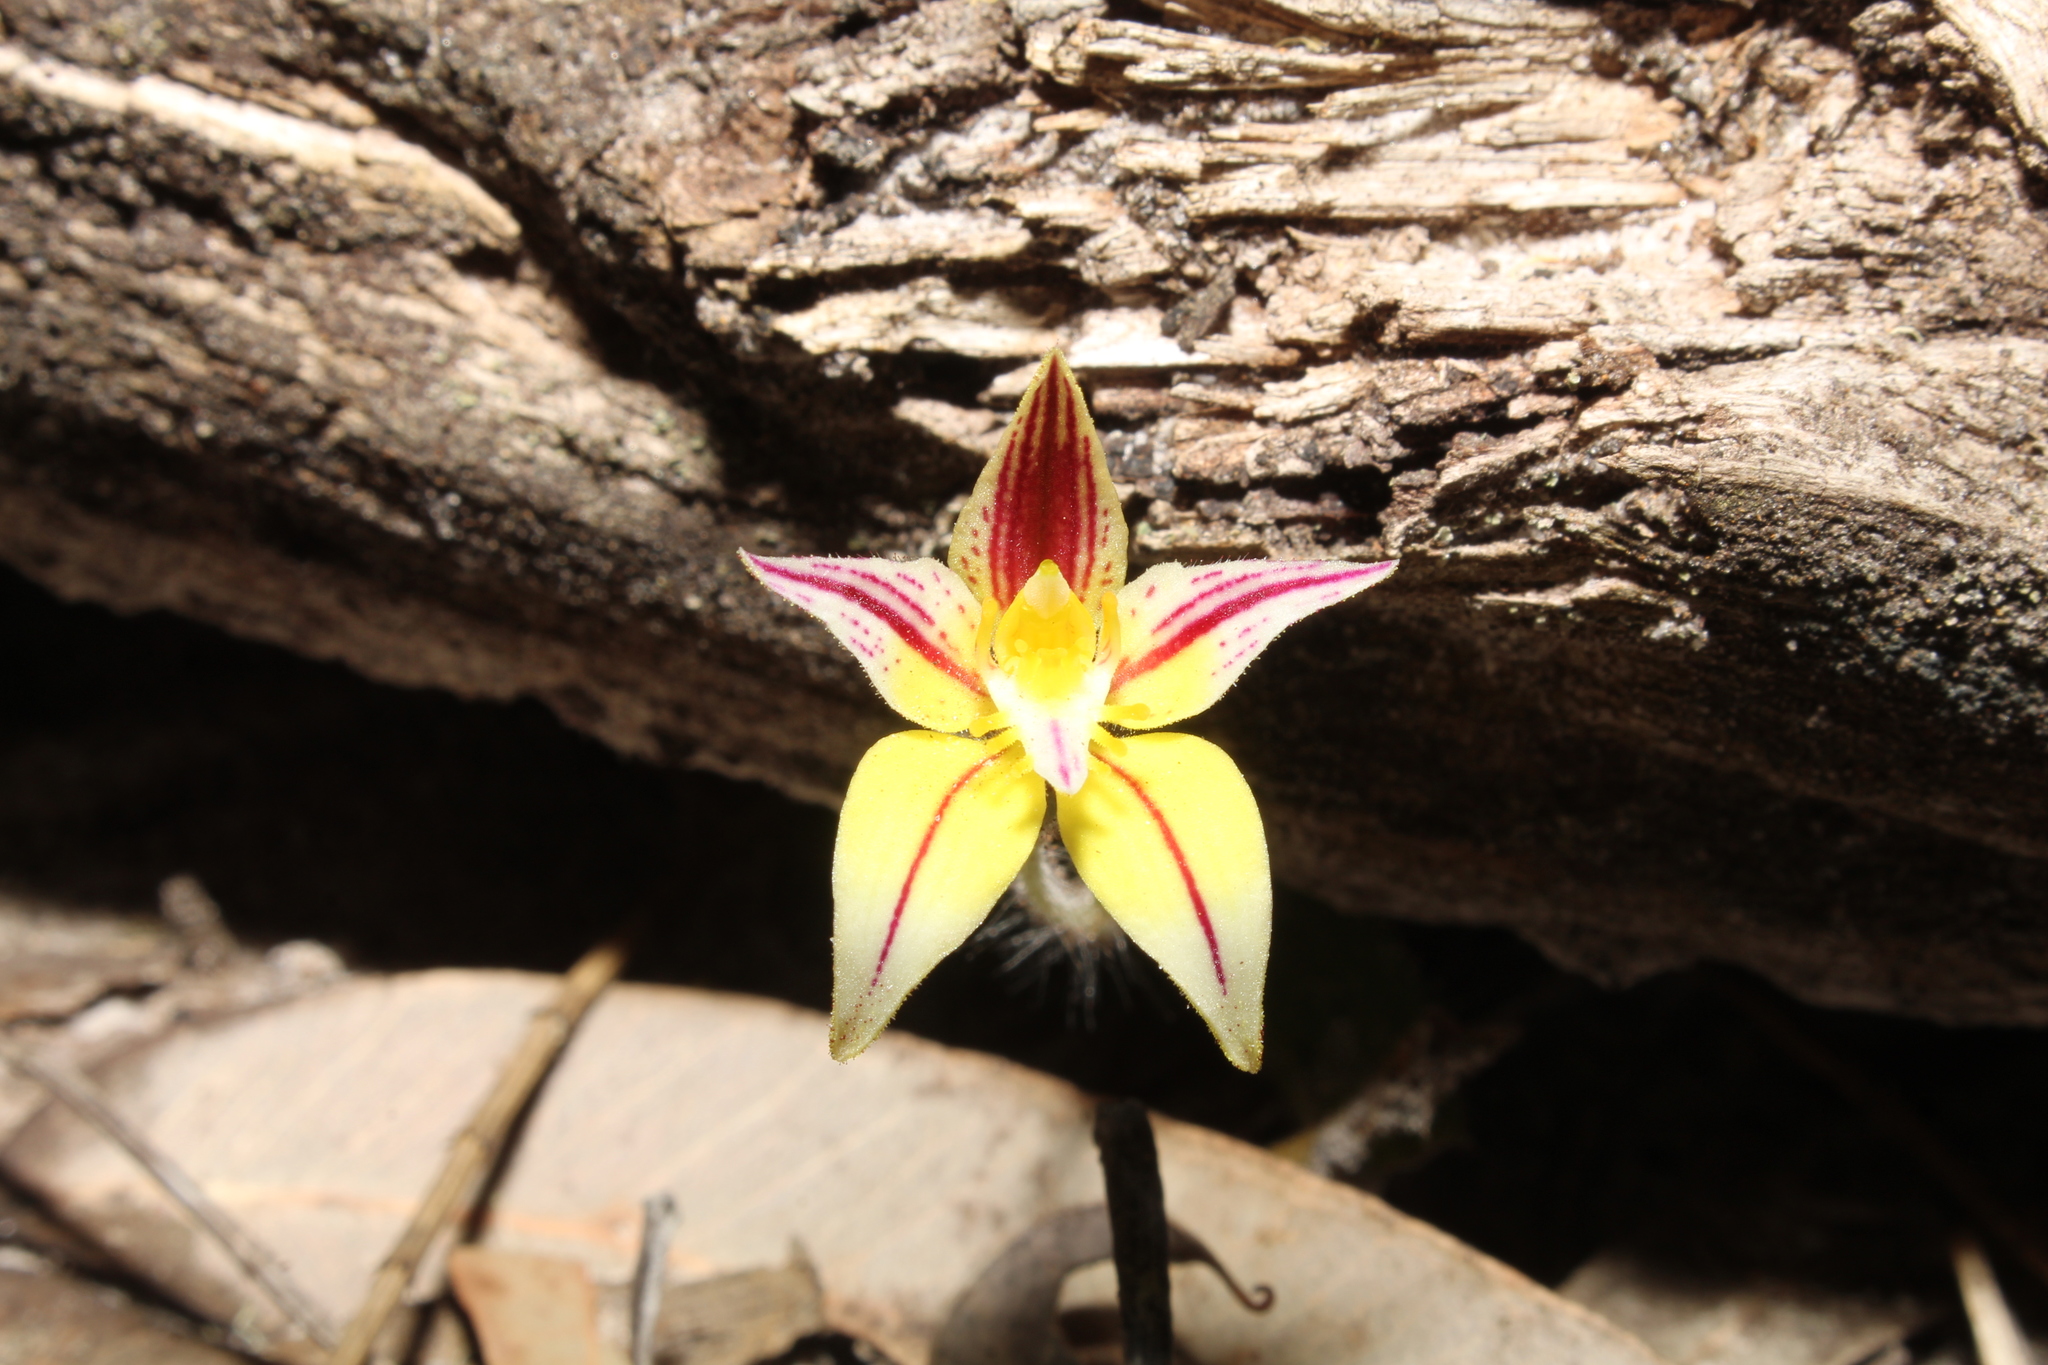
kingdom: Plantae
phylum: Tracheophyta
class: Liliopsida
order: Asparagales
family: Orchidaceae
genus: Caladenia
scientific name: Caladenia flava
